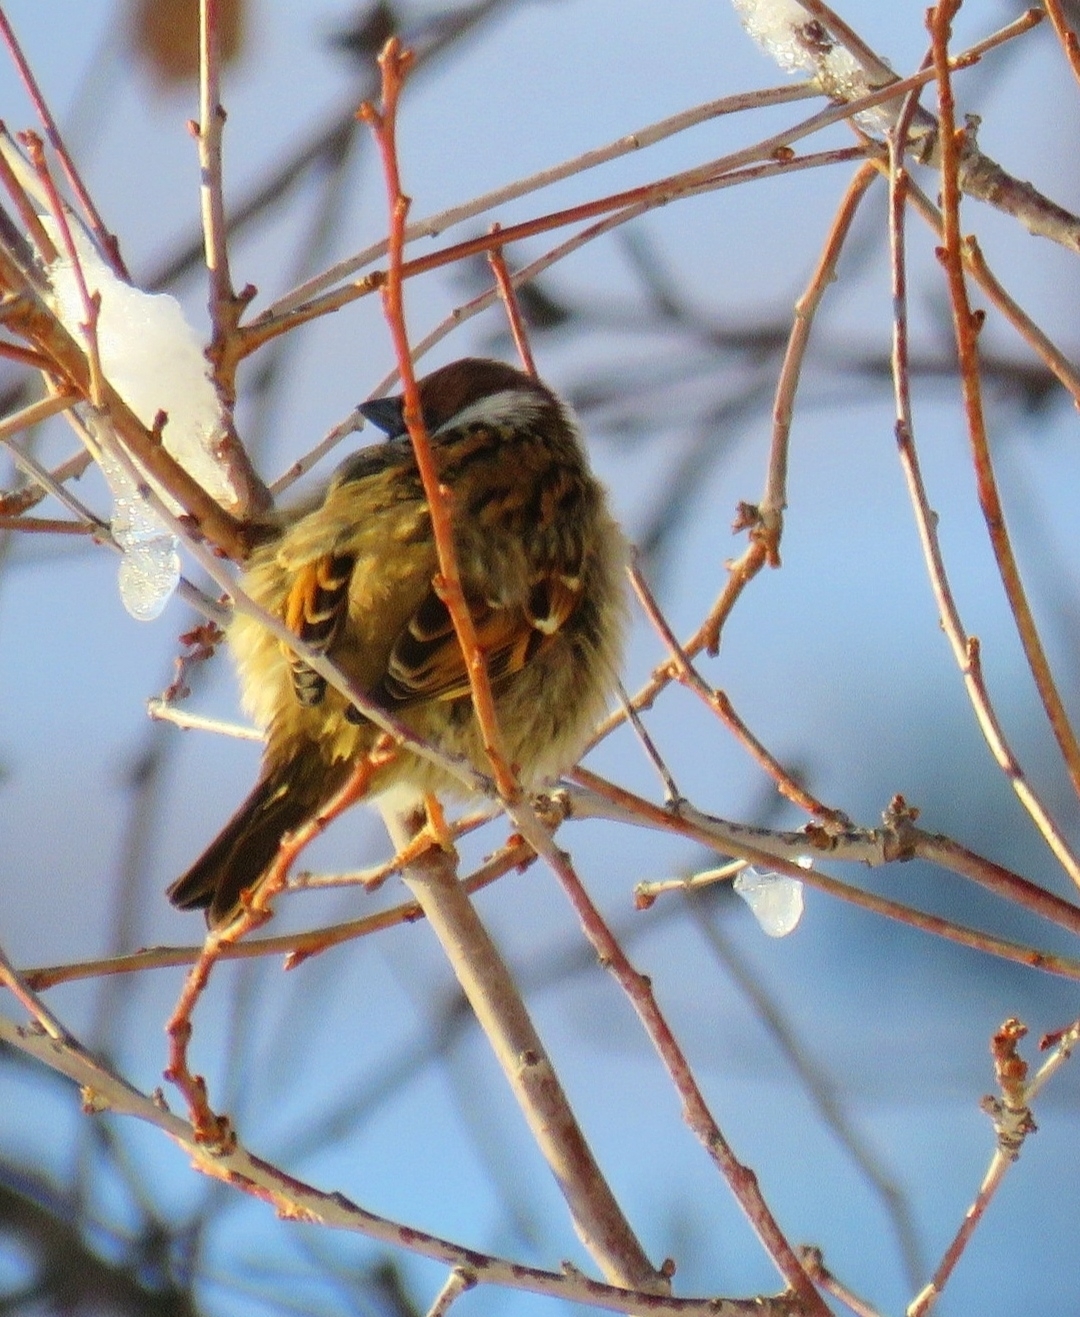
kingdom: Animalia
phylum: Chordata
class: Aves
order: Passeriformes
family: Passeridae
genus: Passer
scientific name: Passer montanus
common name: Eurasian tree sparrow
